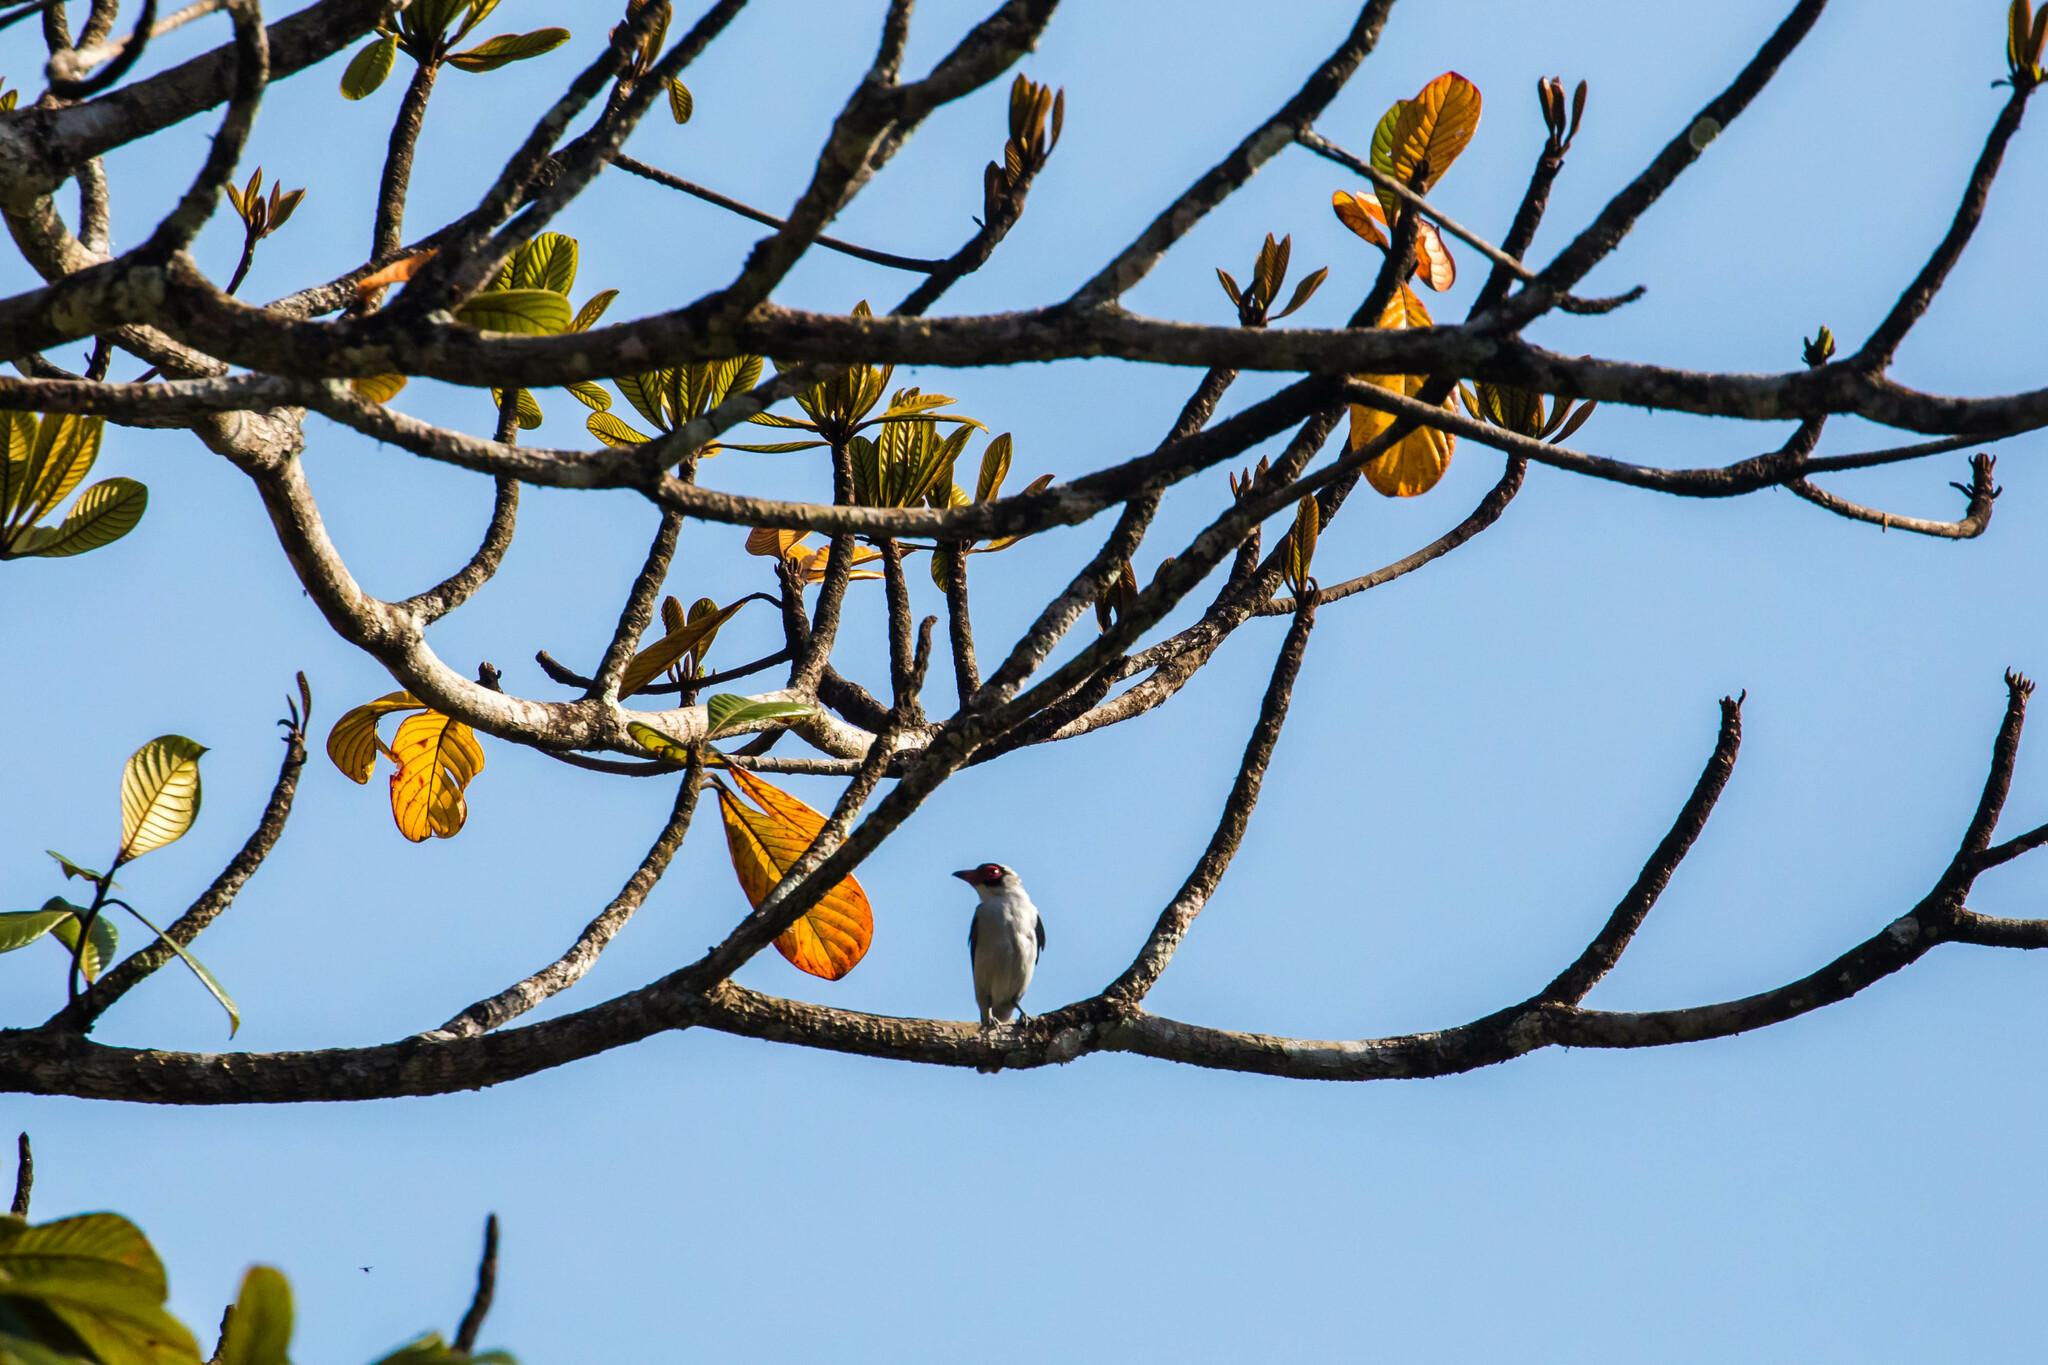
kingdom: Animalia
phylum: Chordata
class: Aves
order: Passeriformes
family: Cotingidae
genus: Tityra
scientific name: Tityra semifasciata
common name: Masked tityra
